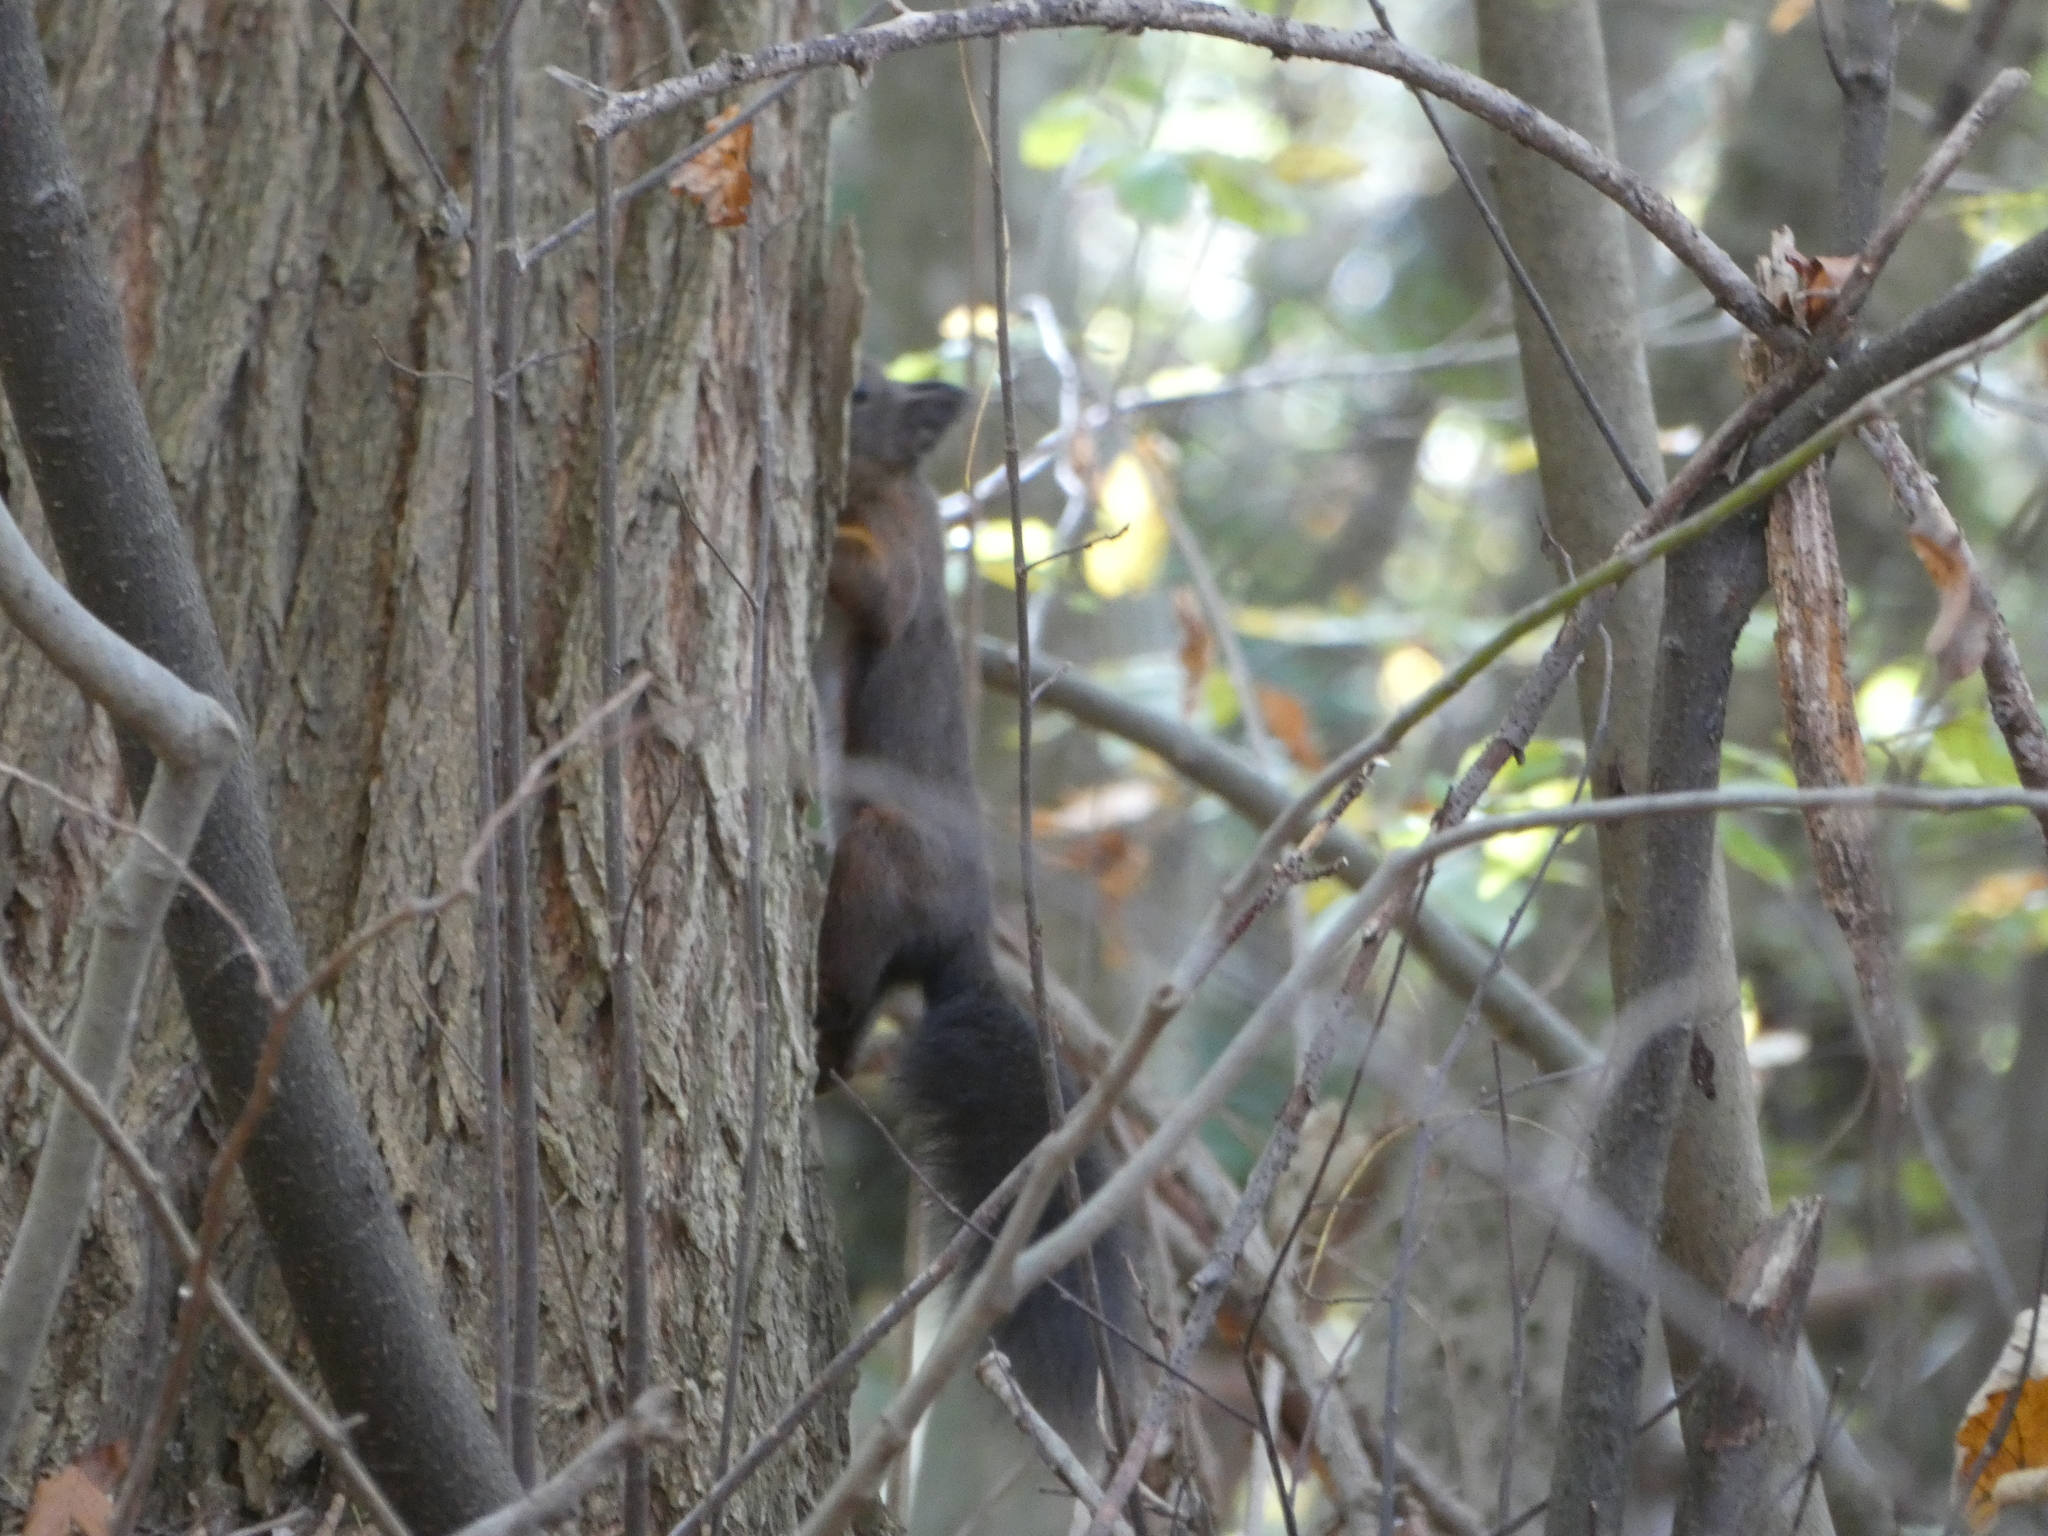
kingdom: Animalia
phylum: Chordata
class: Mammalia
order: Rodentia
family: Sciuridae
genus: Sciurus
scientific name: Sciurus vulgaris
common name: Eurasian red squirrel
